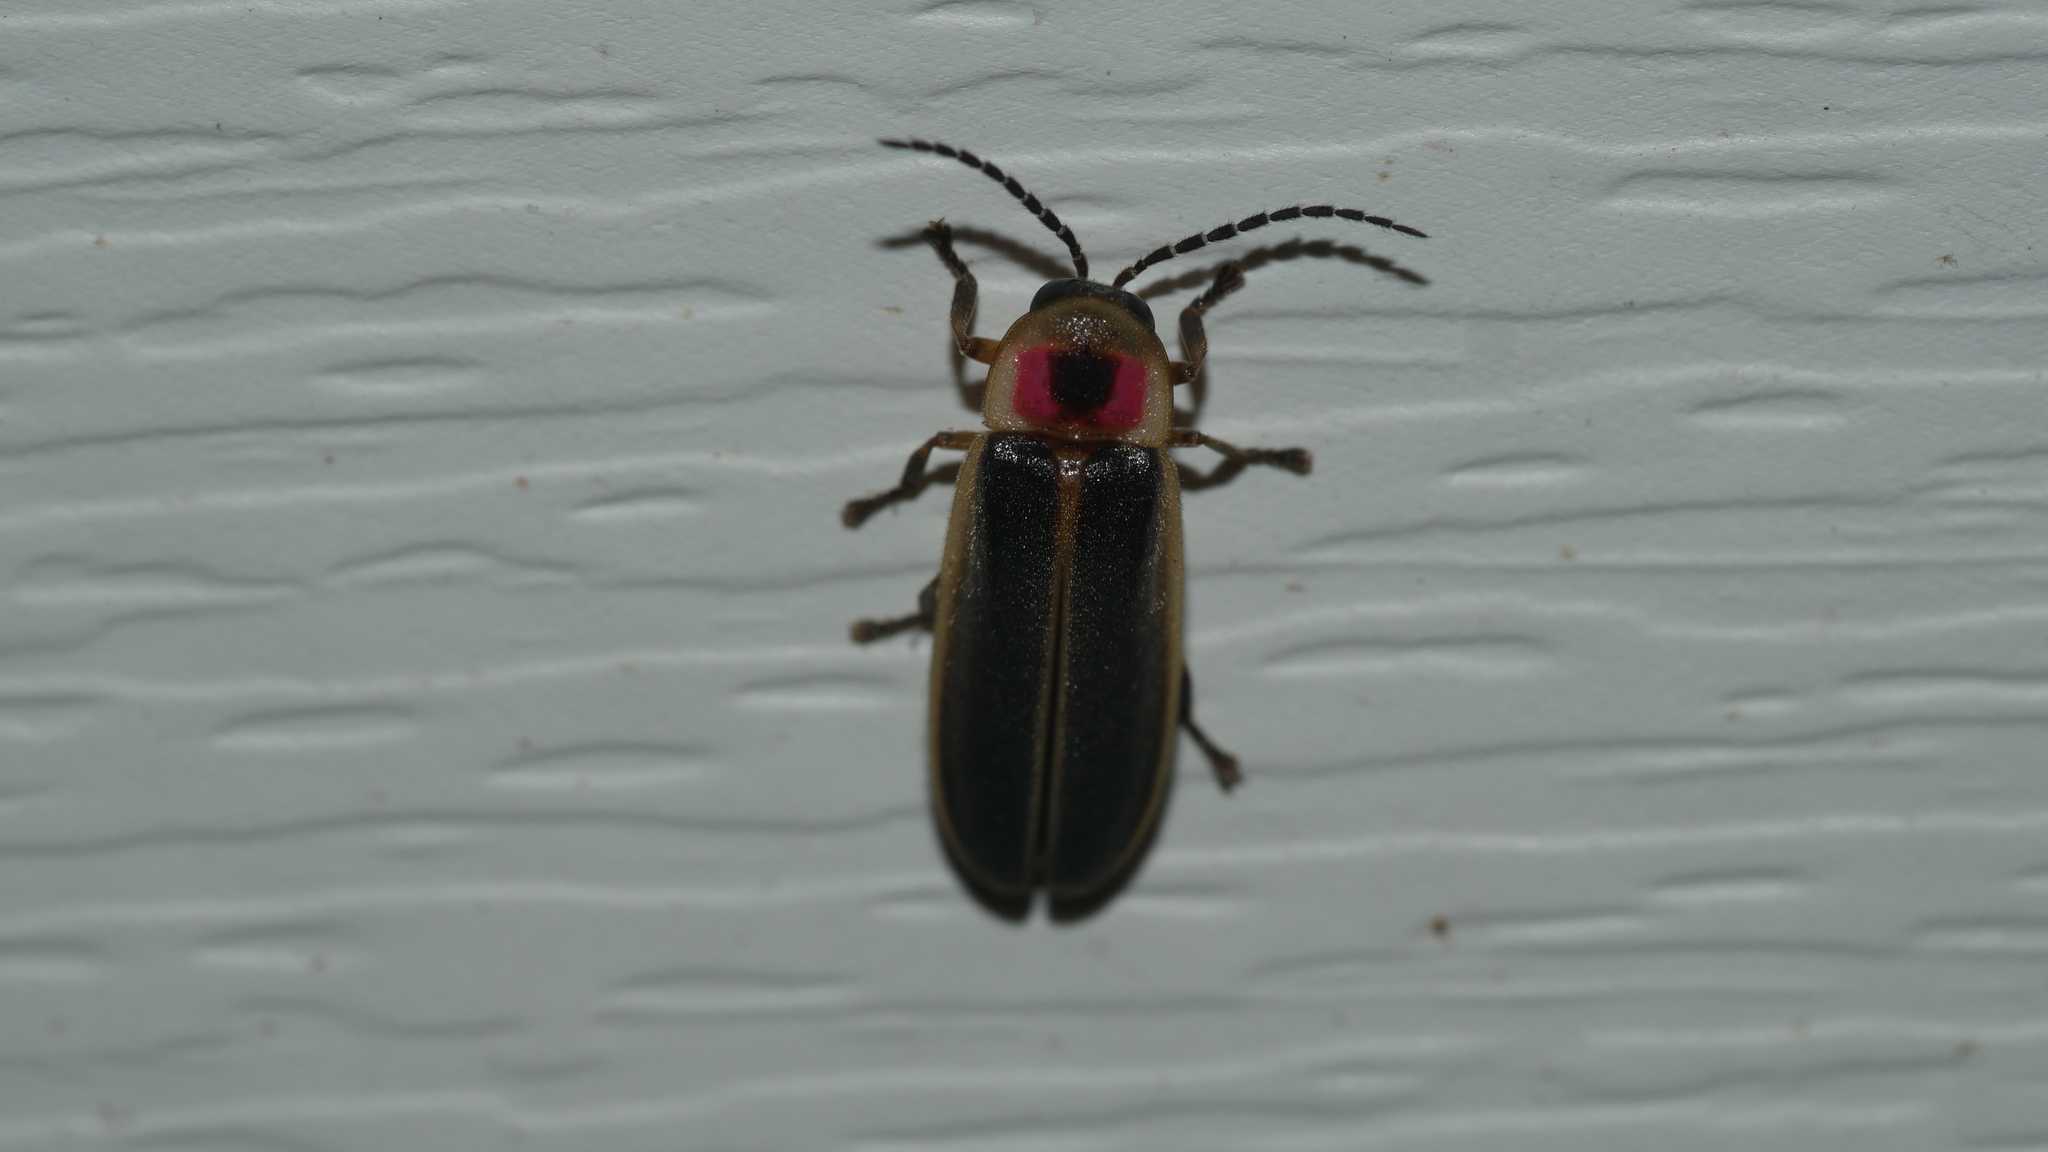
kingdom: Animalia
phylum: Arthropoda
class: Insecta
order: Coleoptera
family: Lampyridae
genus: Photinus
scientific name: Photinus pyralis
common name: Big dipper firefly
